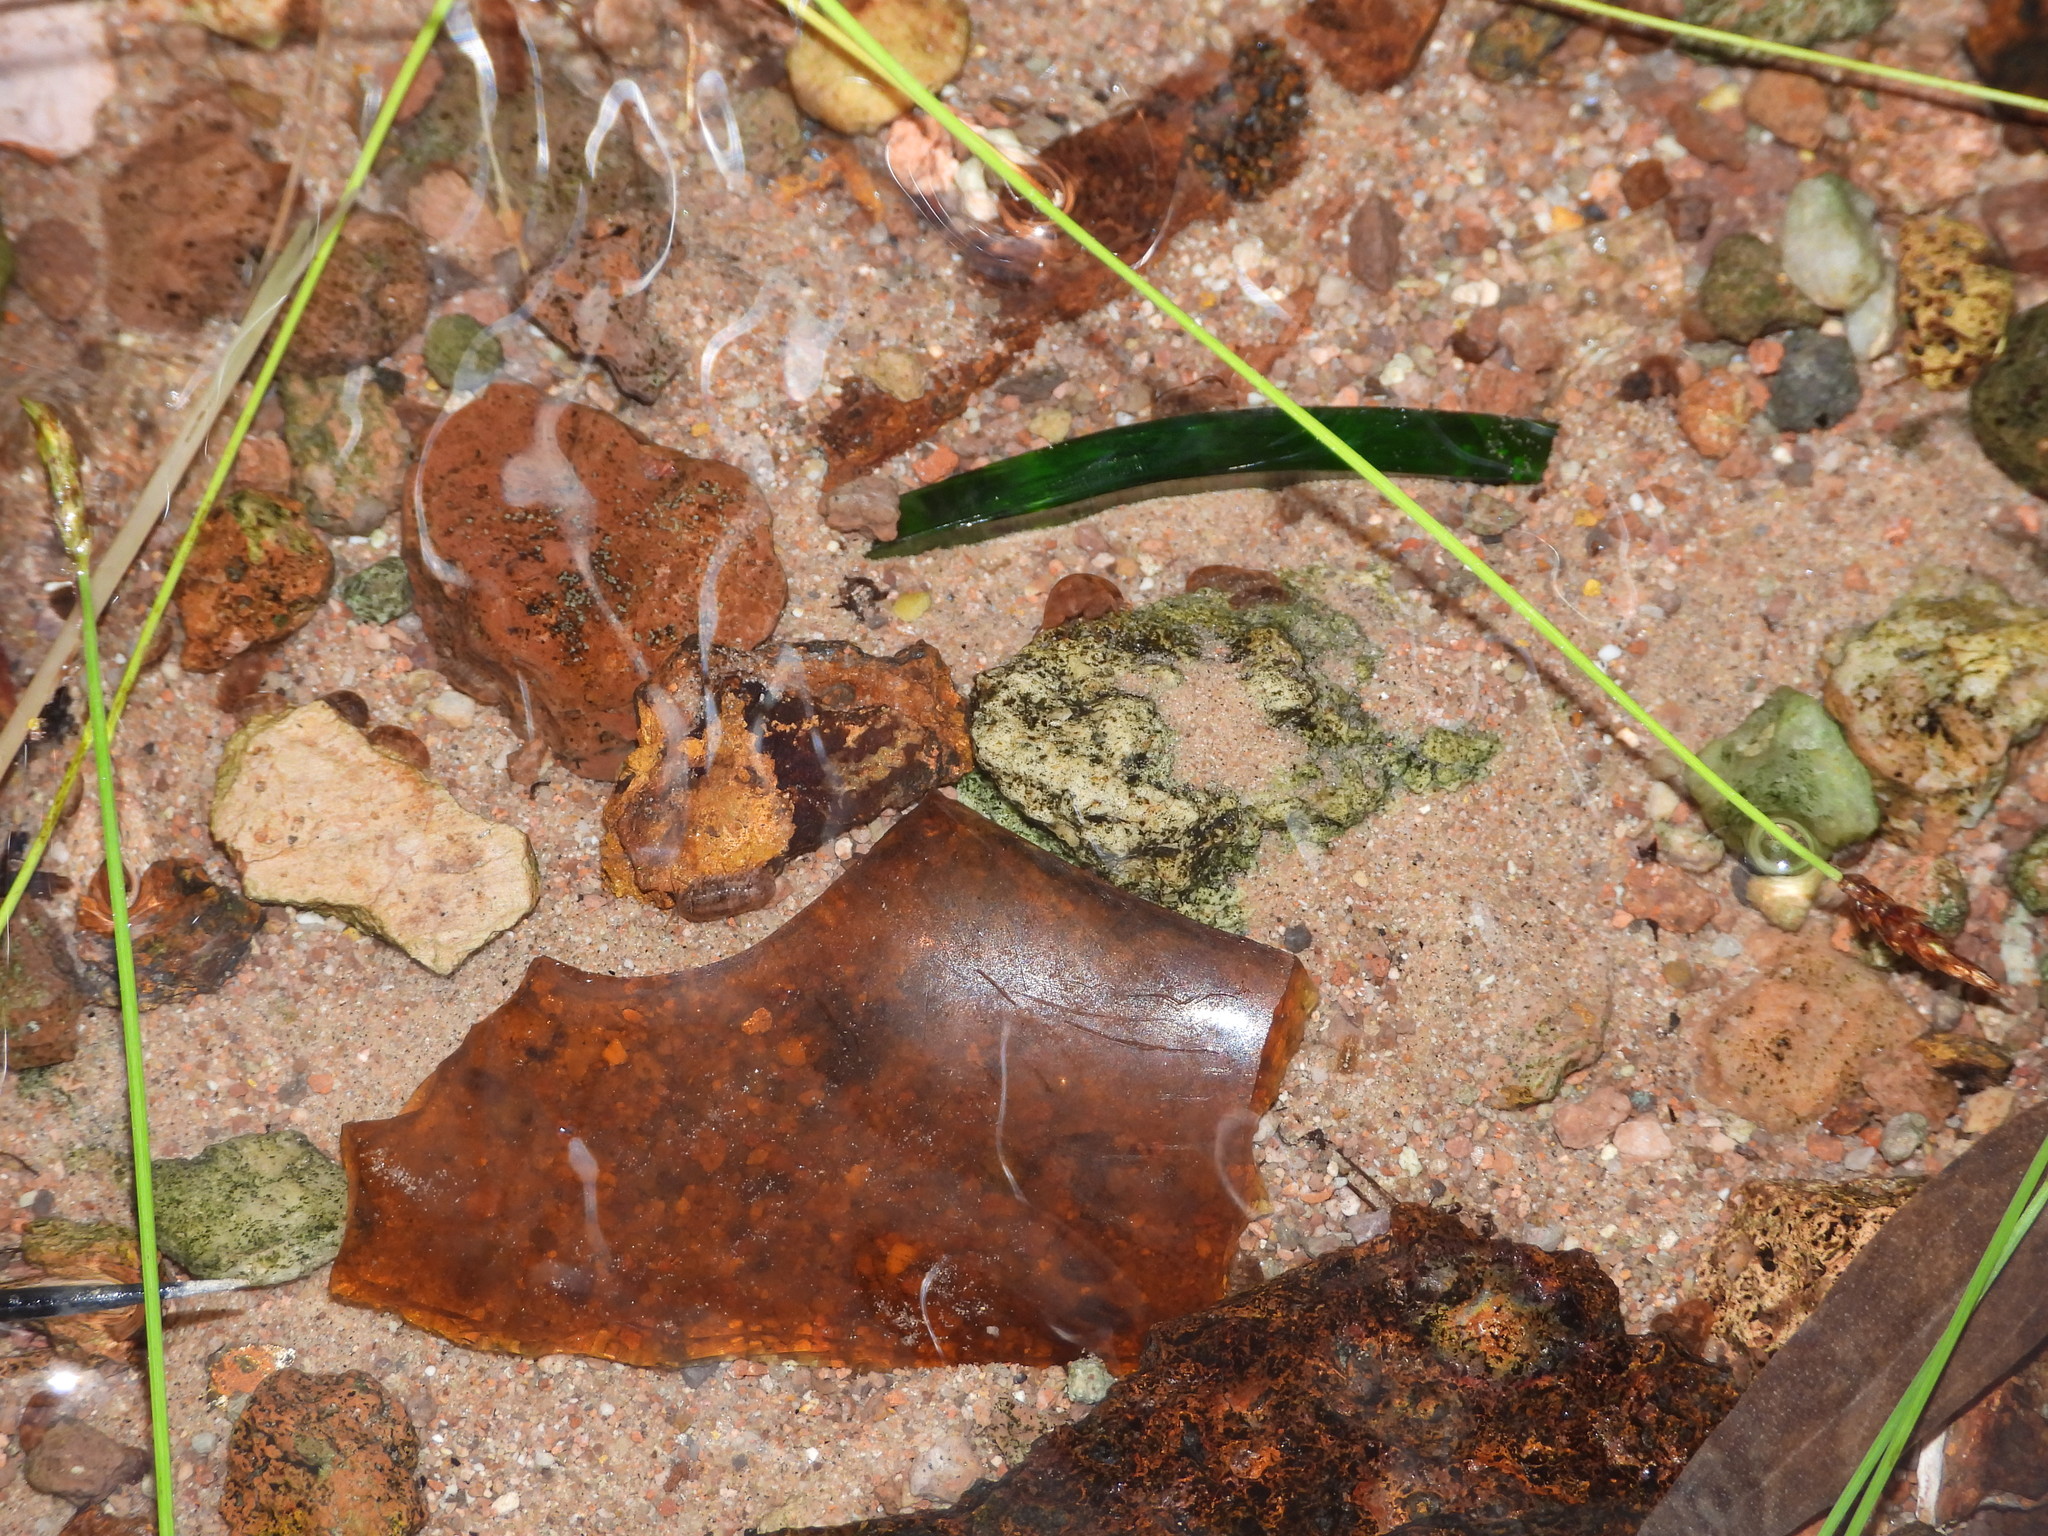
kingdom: Animalia
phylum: Arthropoda
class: Malacostraca
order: Isopoda
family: Sphaeromatidae
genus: Thermosphaeroma
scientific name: Thermosphaeroma thermophilum
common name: Socorro isopod
